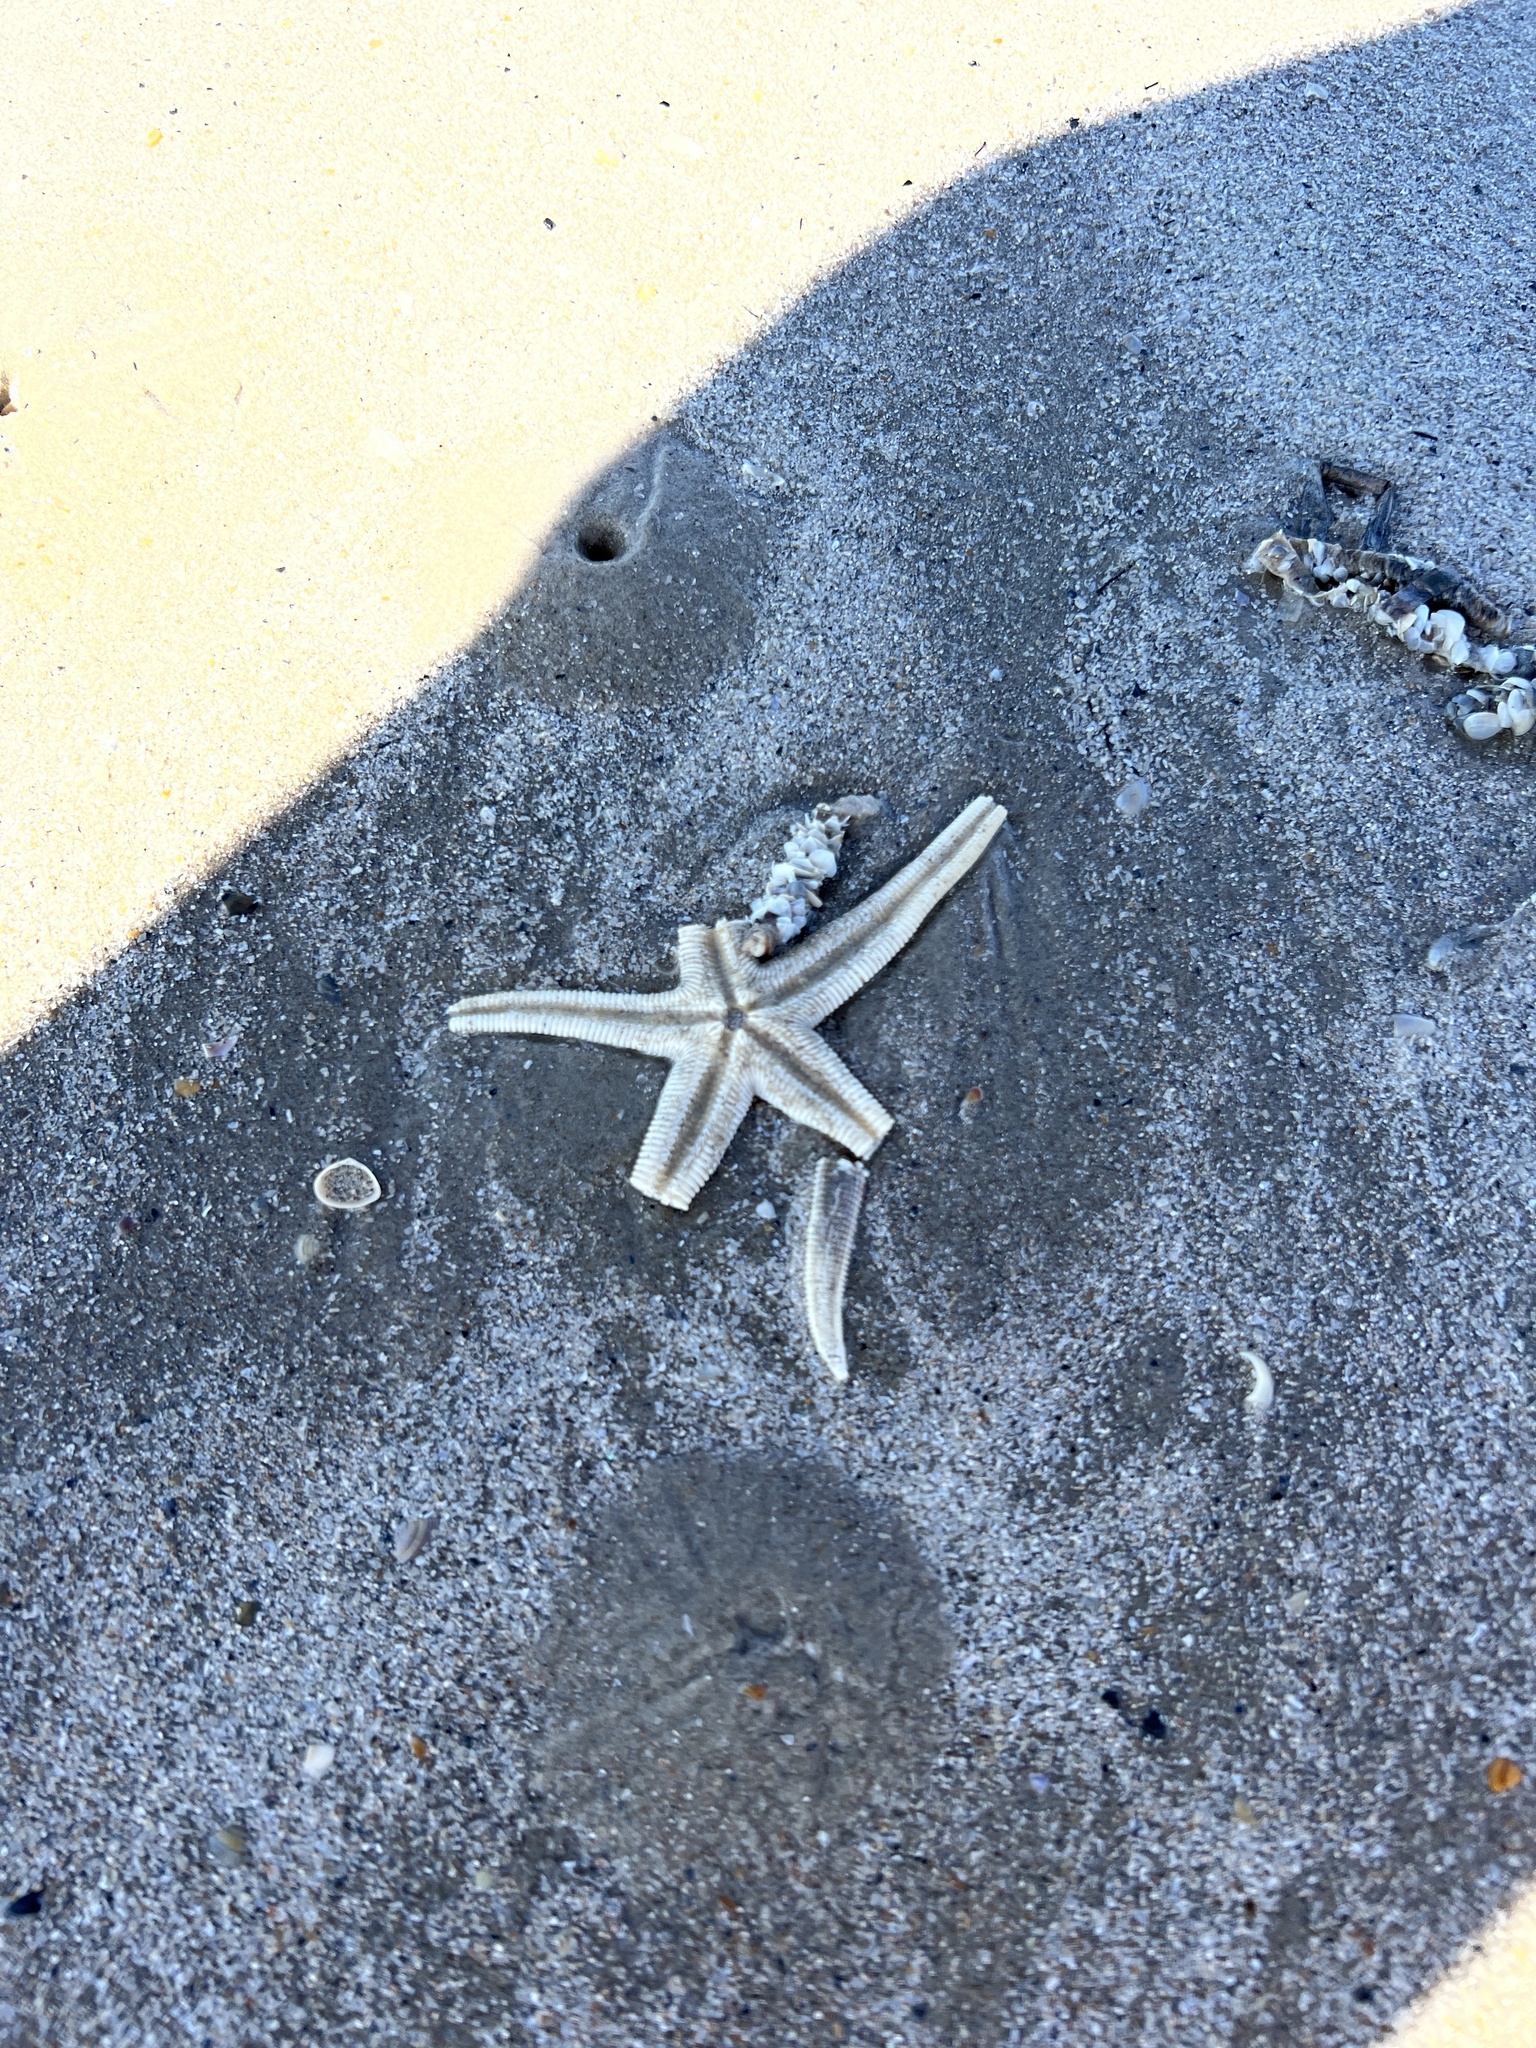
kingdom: Animalia
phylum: Echinodermata
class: Asteroidea
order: Paxillosida
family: Luidiidae
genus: Luidia
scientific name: Luidia clathrata
